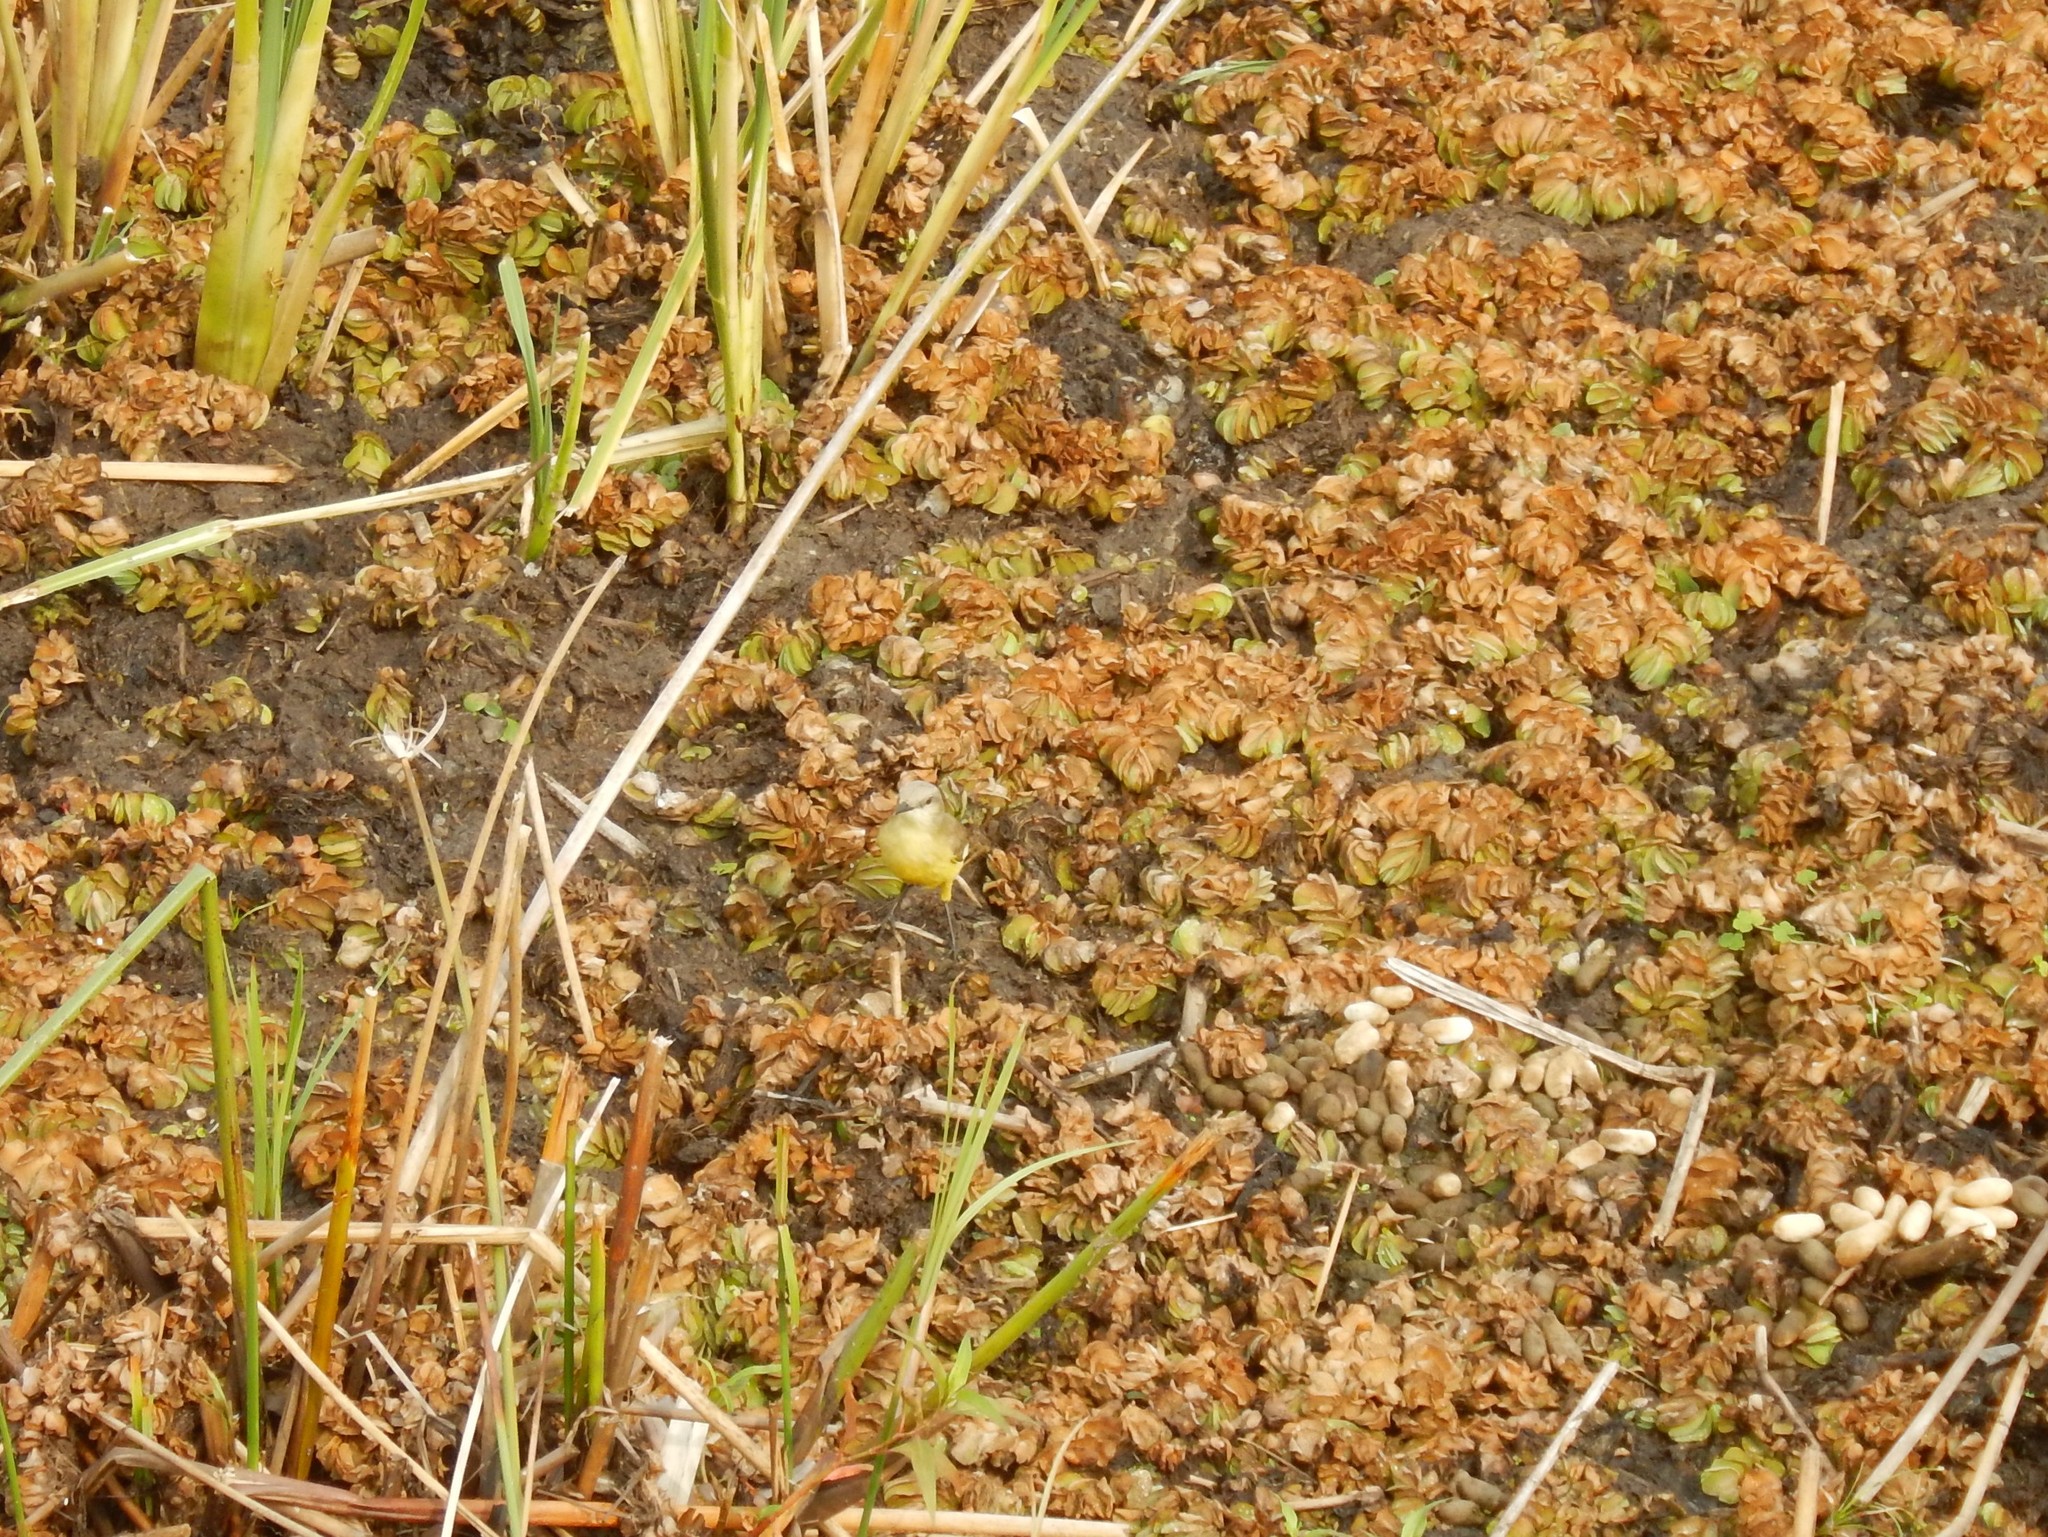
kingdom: Animalia
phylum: Chordata
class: Aves
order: Passeriformes
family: Tyrannidae
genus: Machetornis
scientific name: Machetornis rixosa
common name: Cattle tyrant
